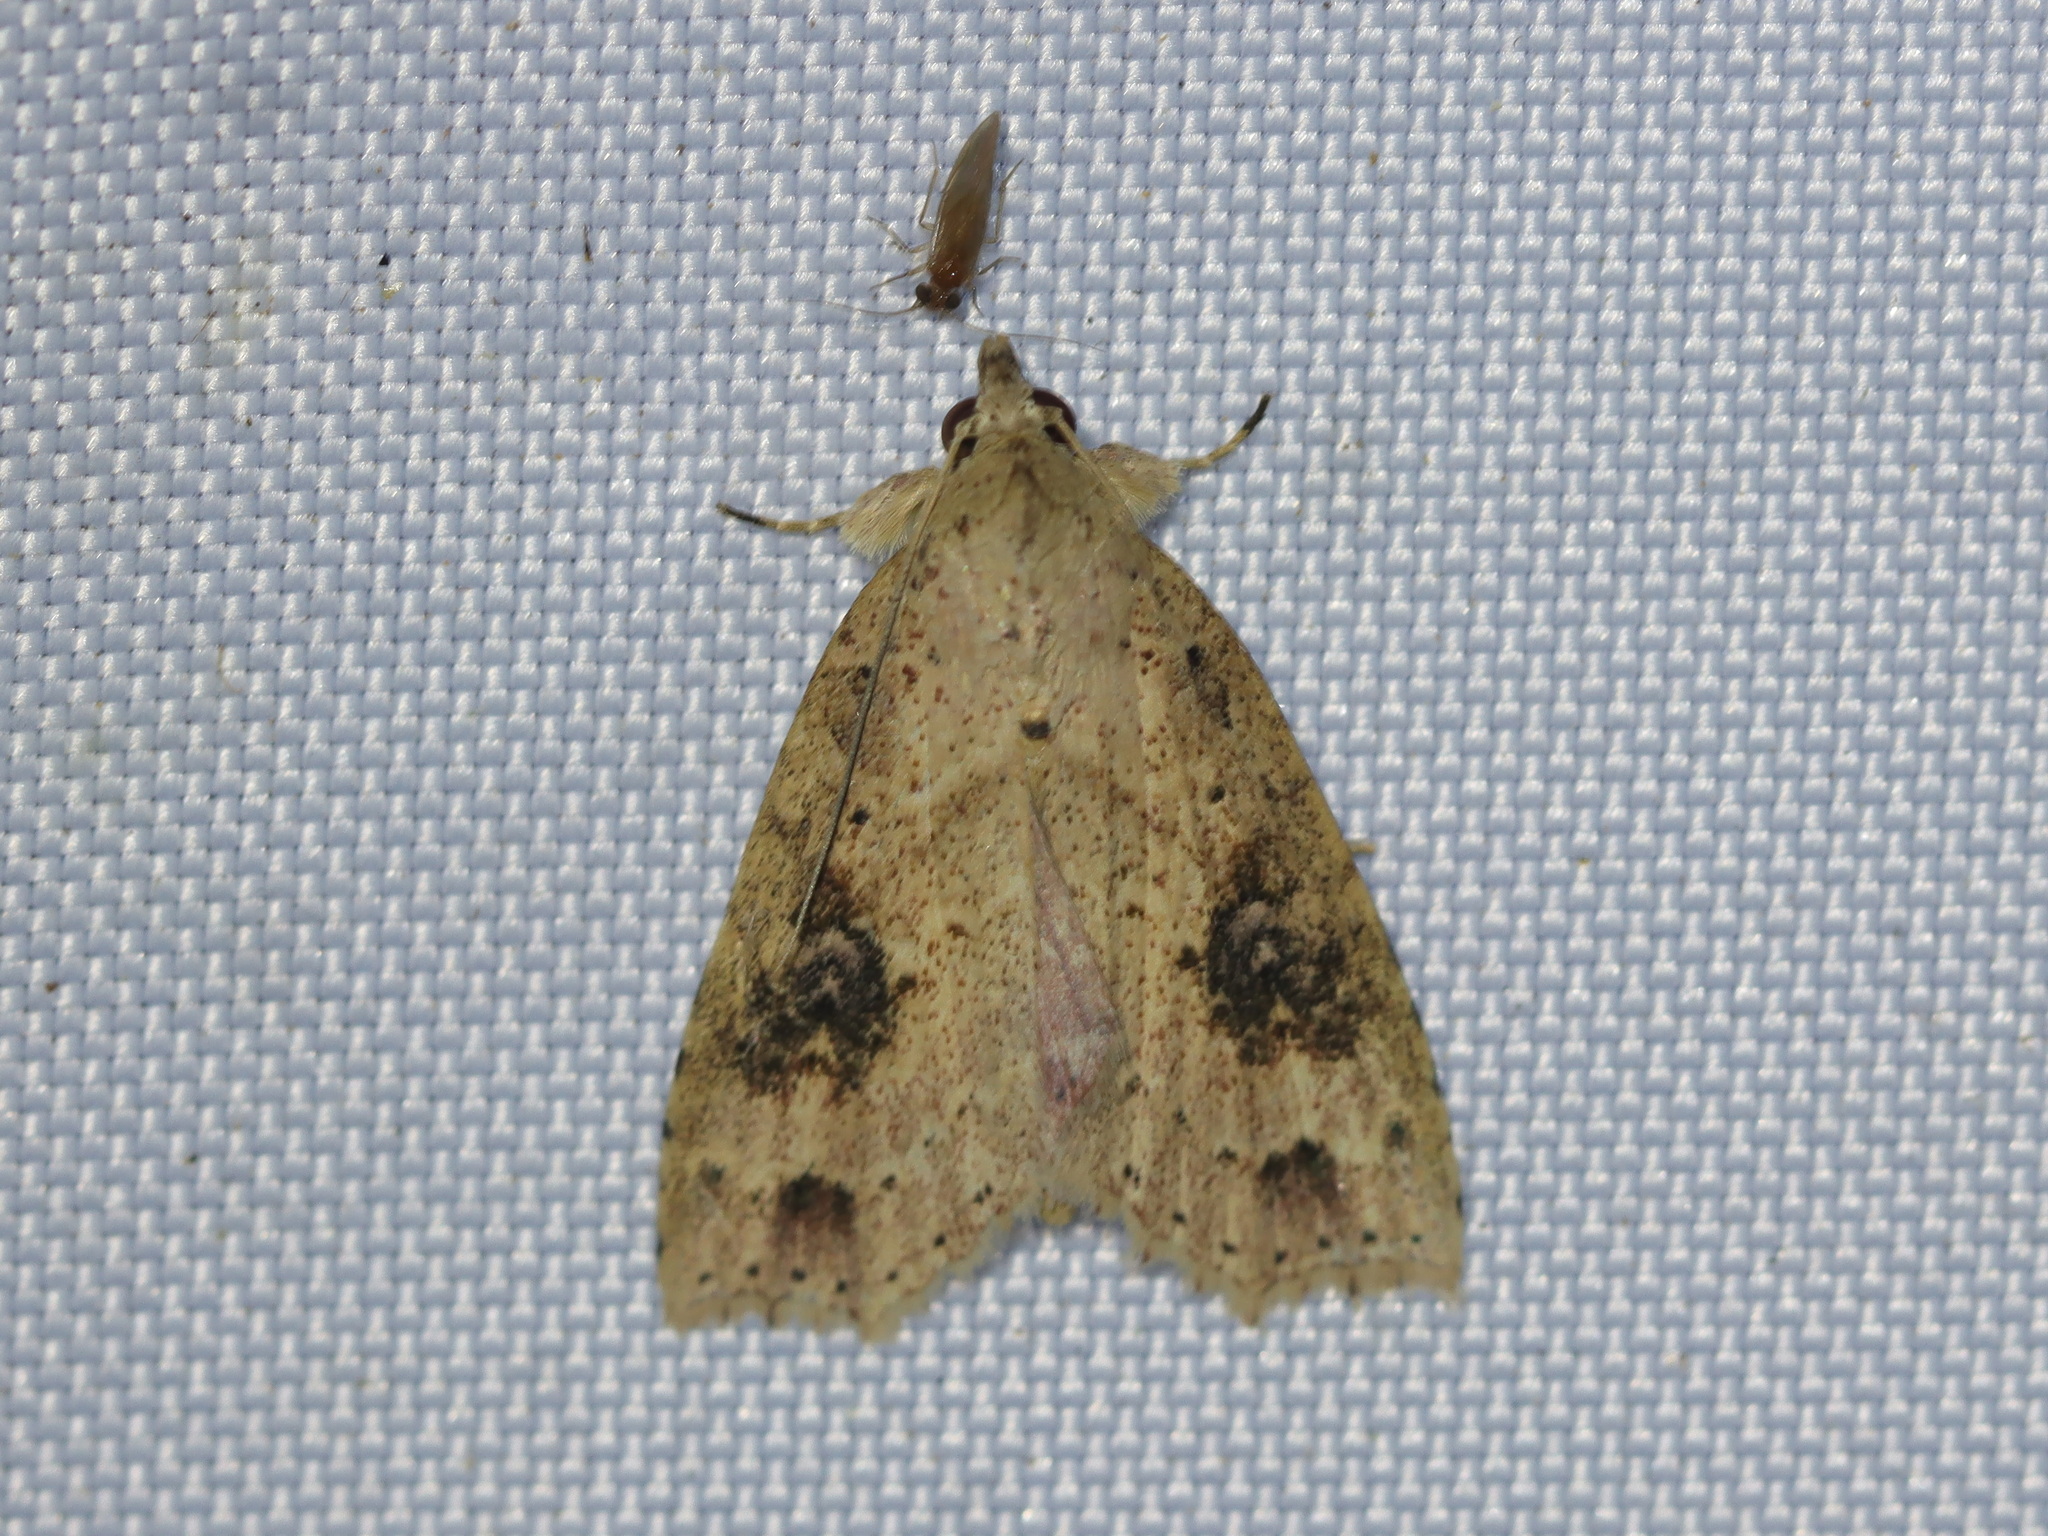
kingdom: Animalia
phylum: Arthropoda
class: Insecta
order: Lepidoptera
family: Erebidae
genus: Olulis
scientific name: Olulis puncticinctalis
